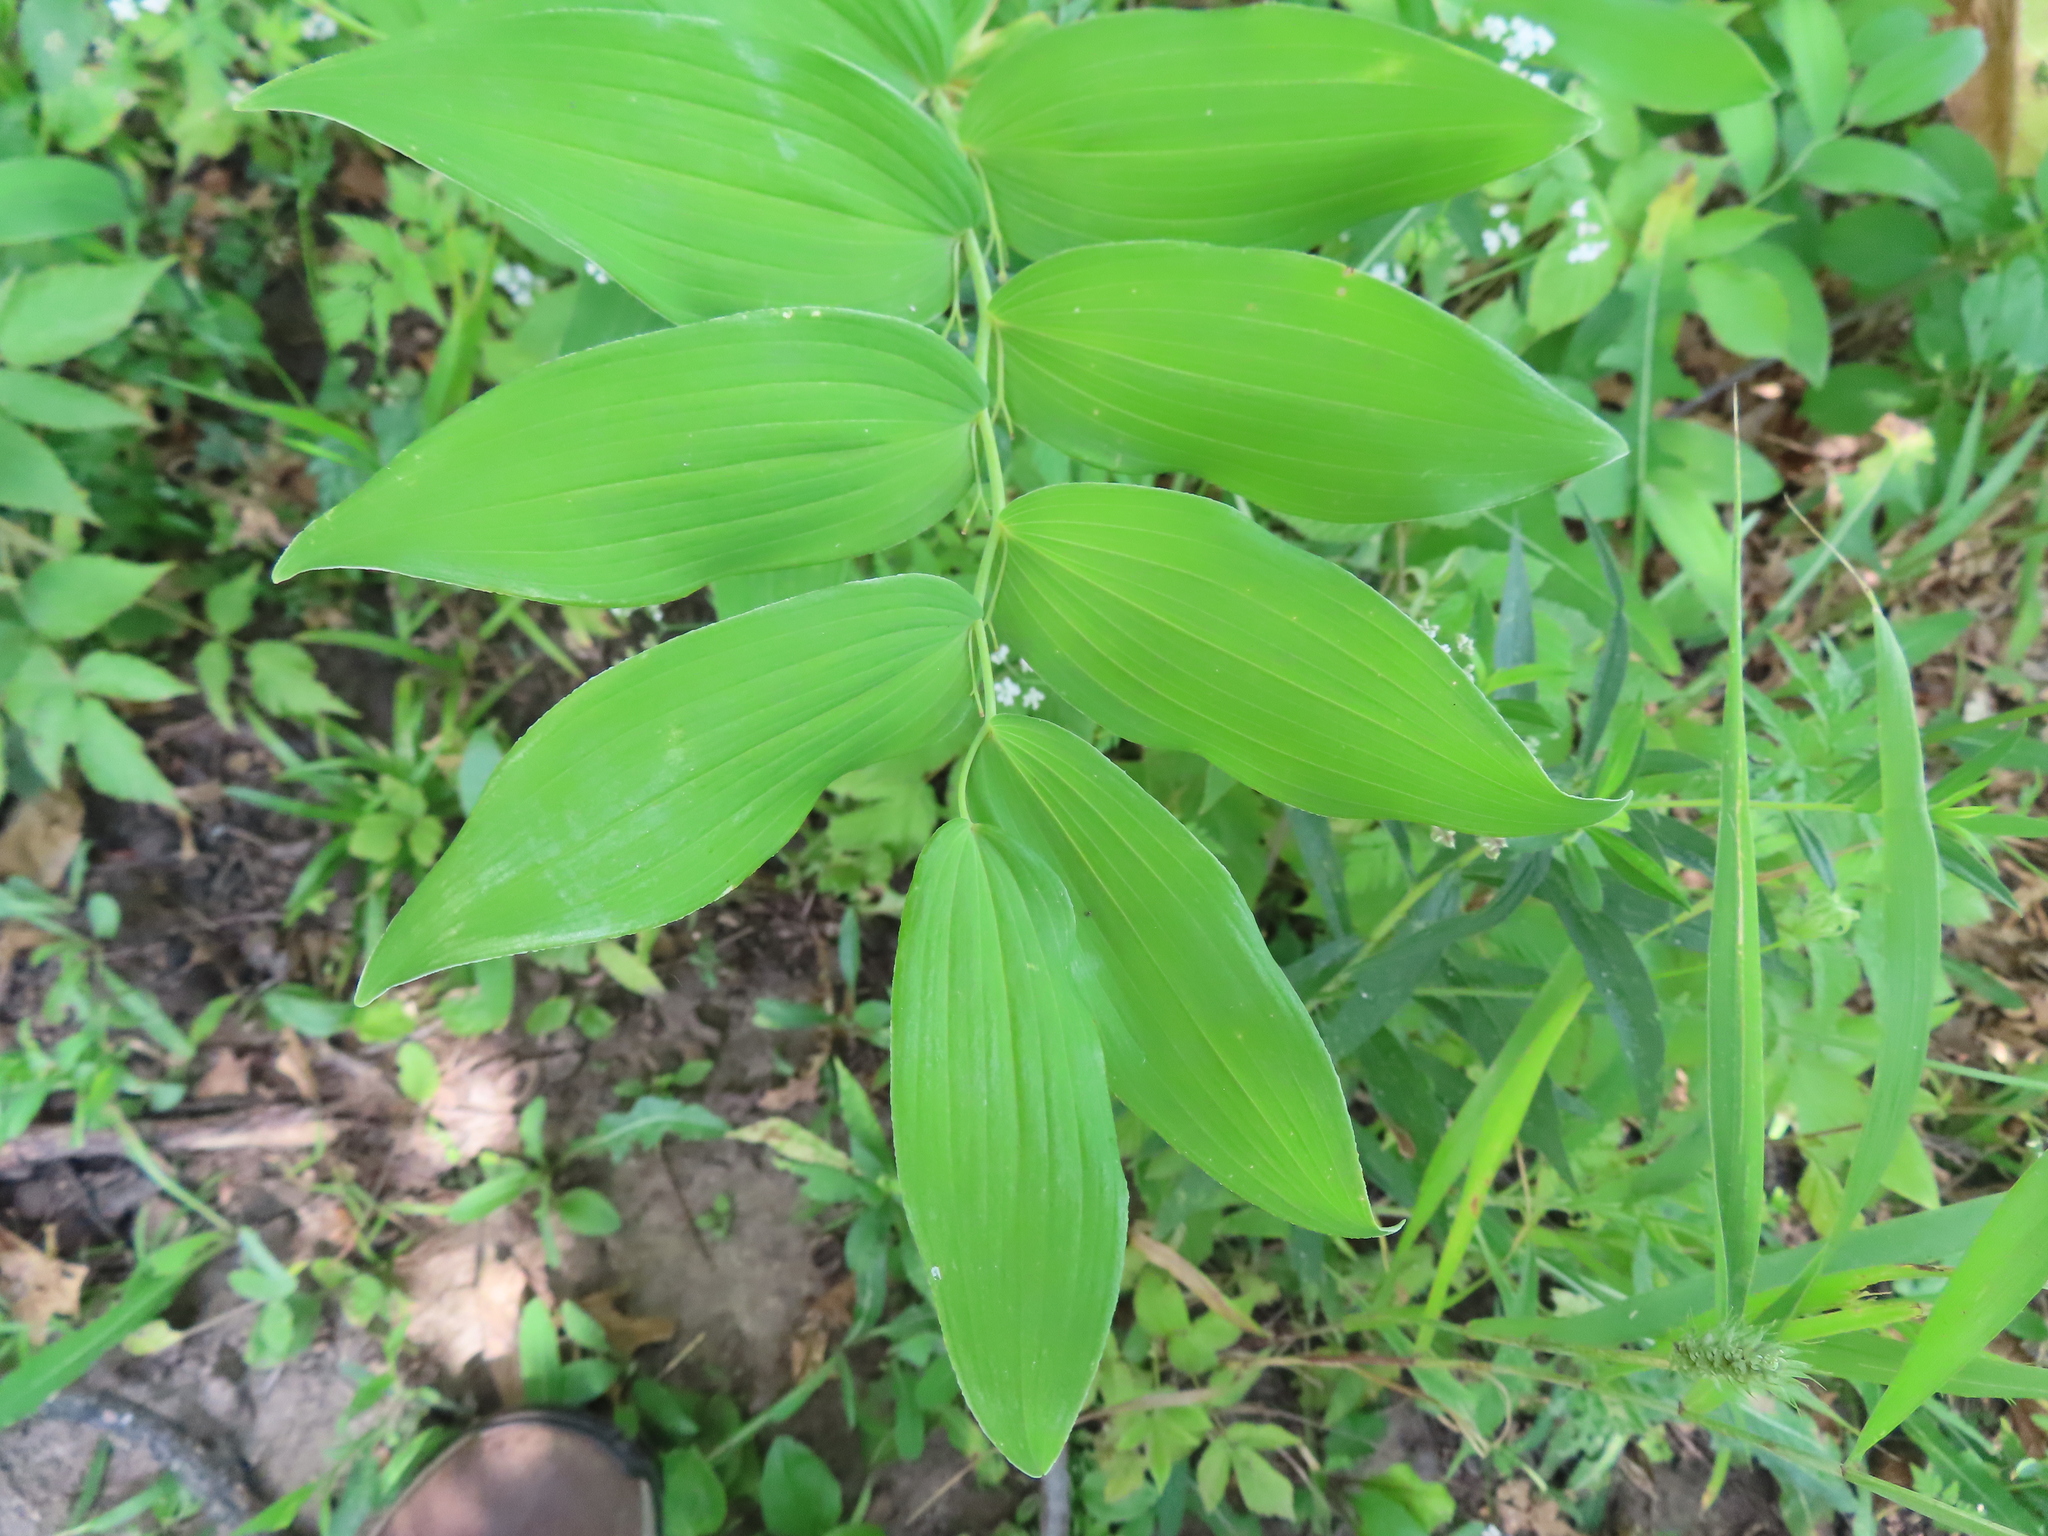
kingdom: Plantae
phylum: Tracheophyta
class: Liliopsida
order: Asparagales
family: Asparagaceae
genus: Polygonatum
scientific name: Polygonatum biflorum
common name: American solomon's-seal
